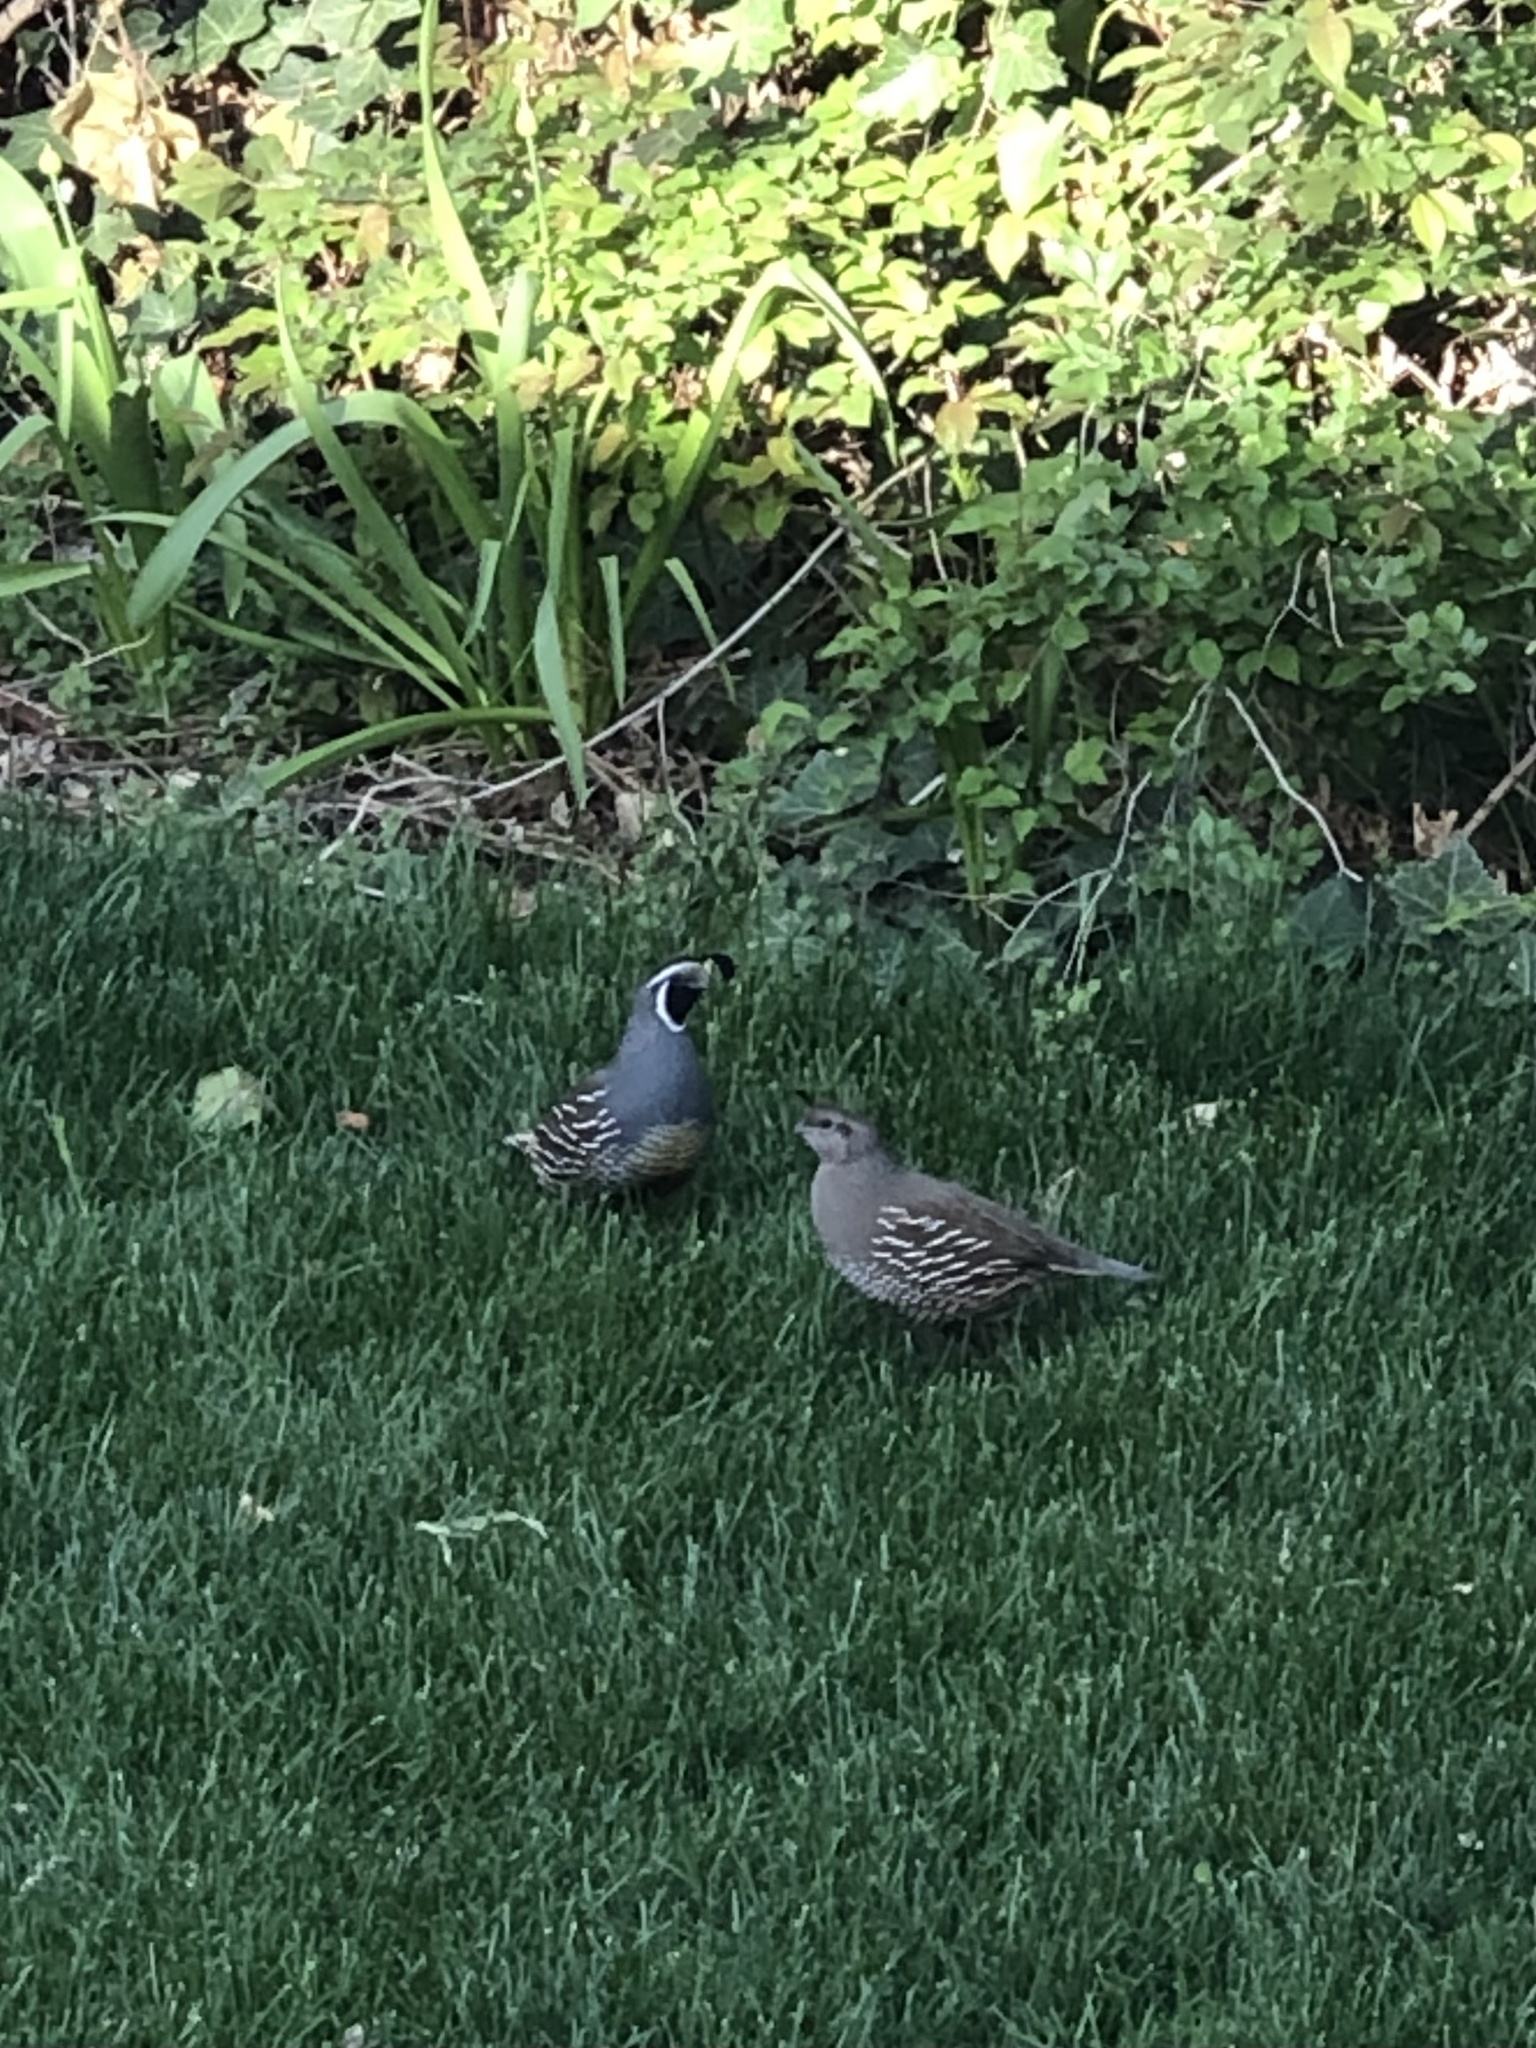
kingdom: Animalia
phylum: Chordata
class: Aves
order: Galliformes
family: Odontophoridae
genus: Callipepla
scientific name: Callipepla californica
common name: California quail
